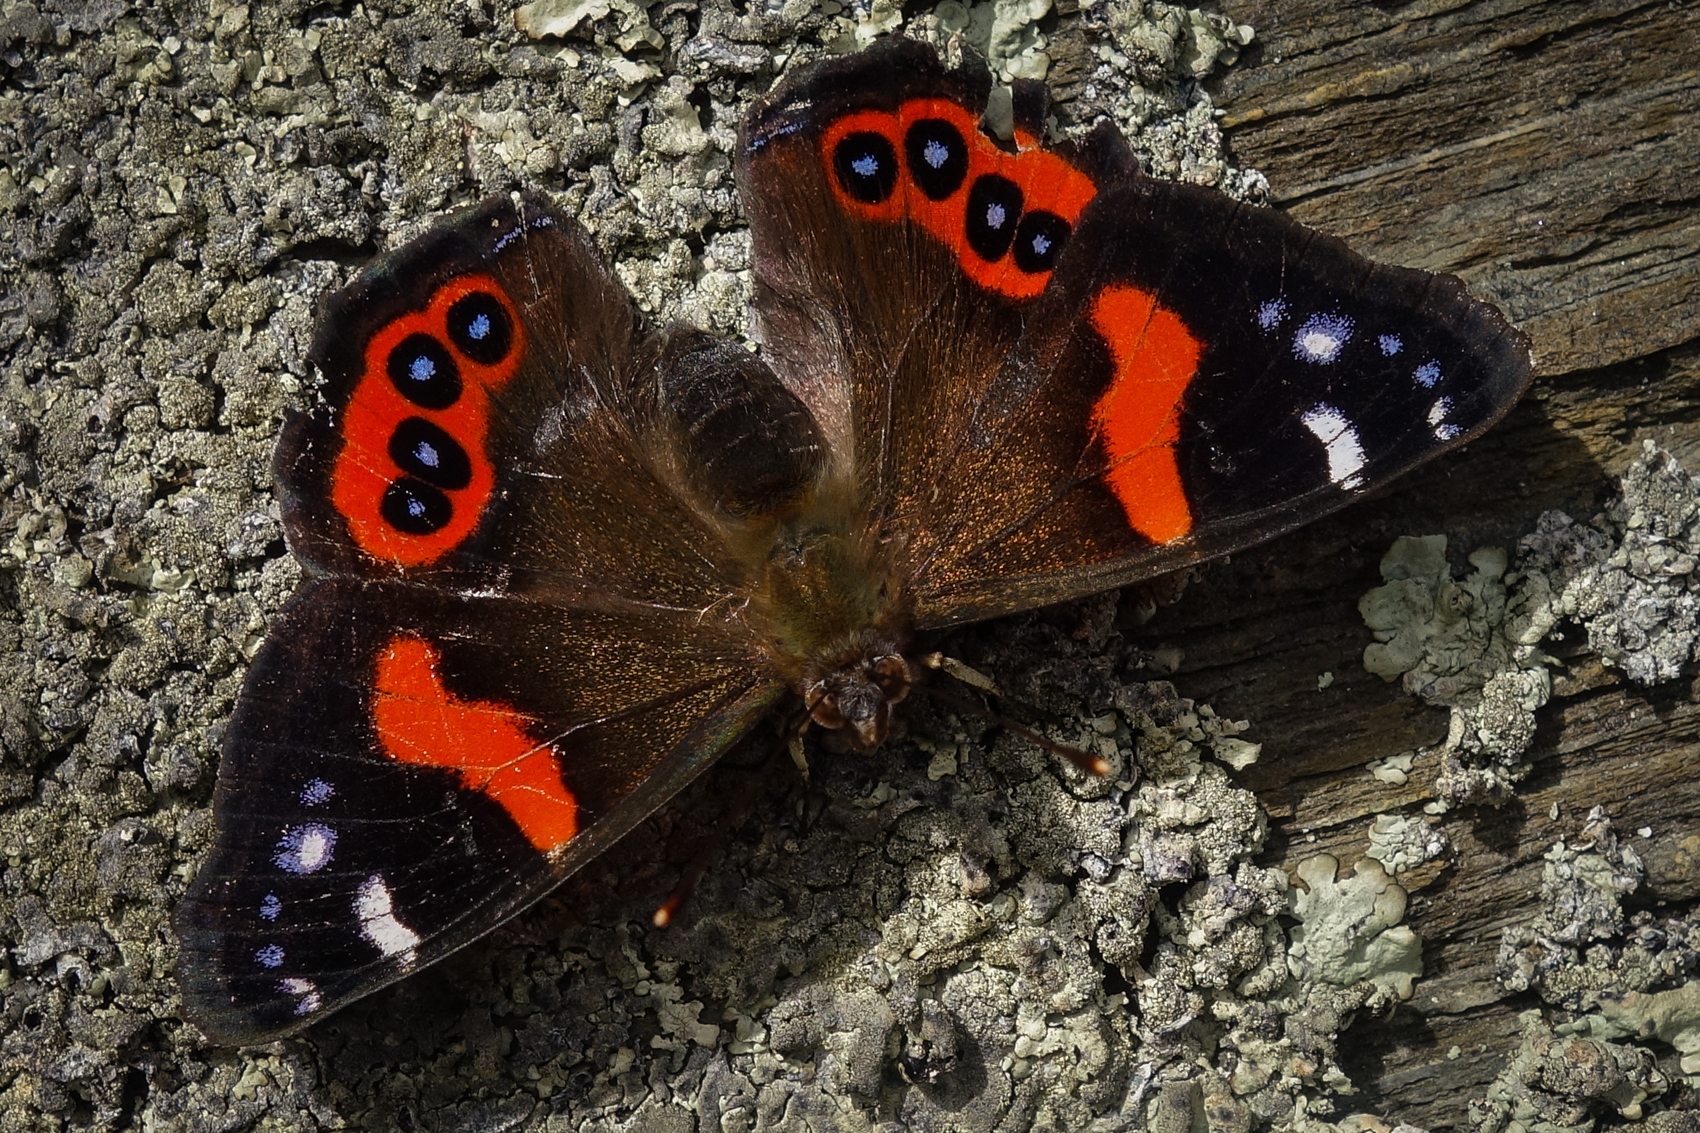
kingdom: Animalia
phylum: Arthropoda
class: Insecta
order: Lepidoptera
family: Nymphalidae
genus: Vanessa
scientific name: Vanessa gonerilla
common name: New zealand red admiral
